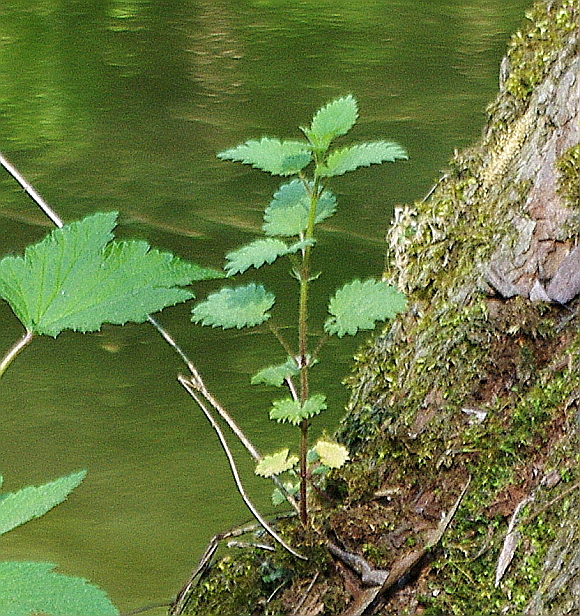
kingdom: Plantae
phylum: Tracheophyta
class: Magnoliopsida
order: Rosales
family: Urticaceae
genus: Urtica
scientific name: Urtica dioica
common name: Common nettle
